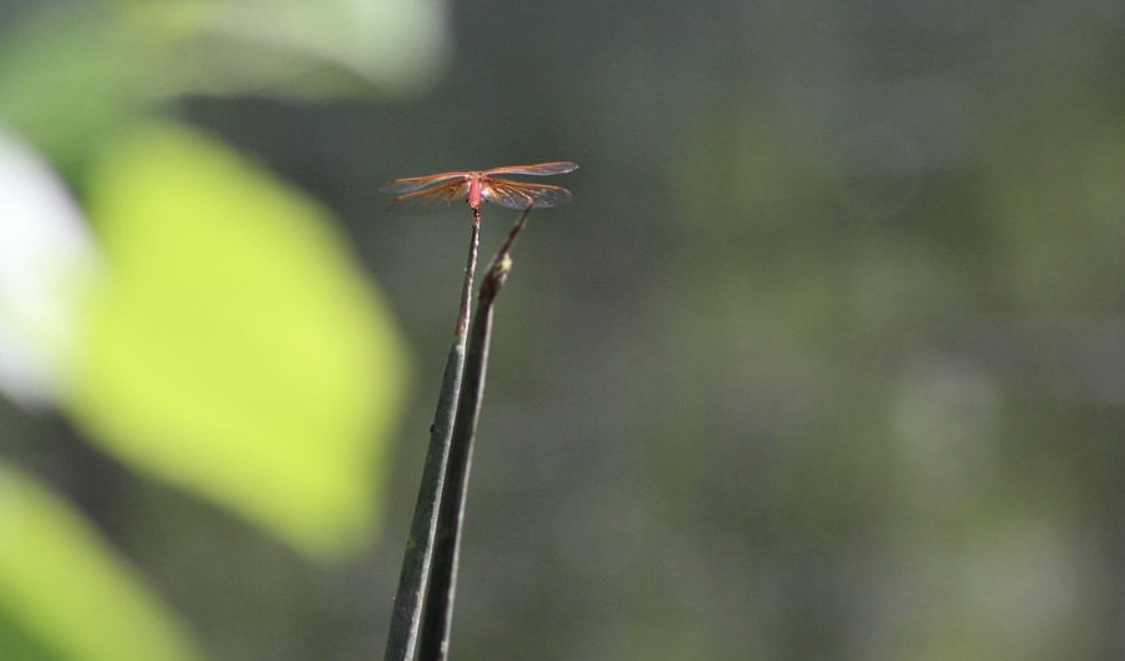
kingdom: Animalia
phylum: Arthropoda
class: Insecta
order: Odonata
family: Libellulidae
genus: Sympetrum
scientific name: Sympetrum illotum
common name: Cardinal meadowhawk
